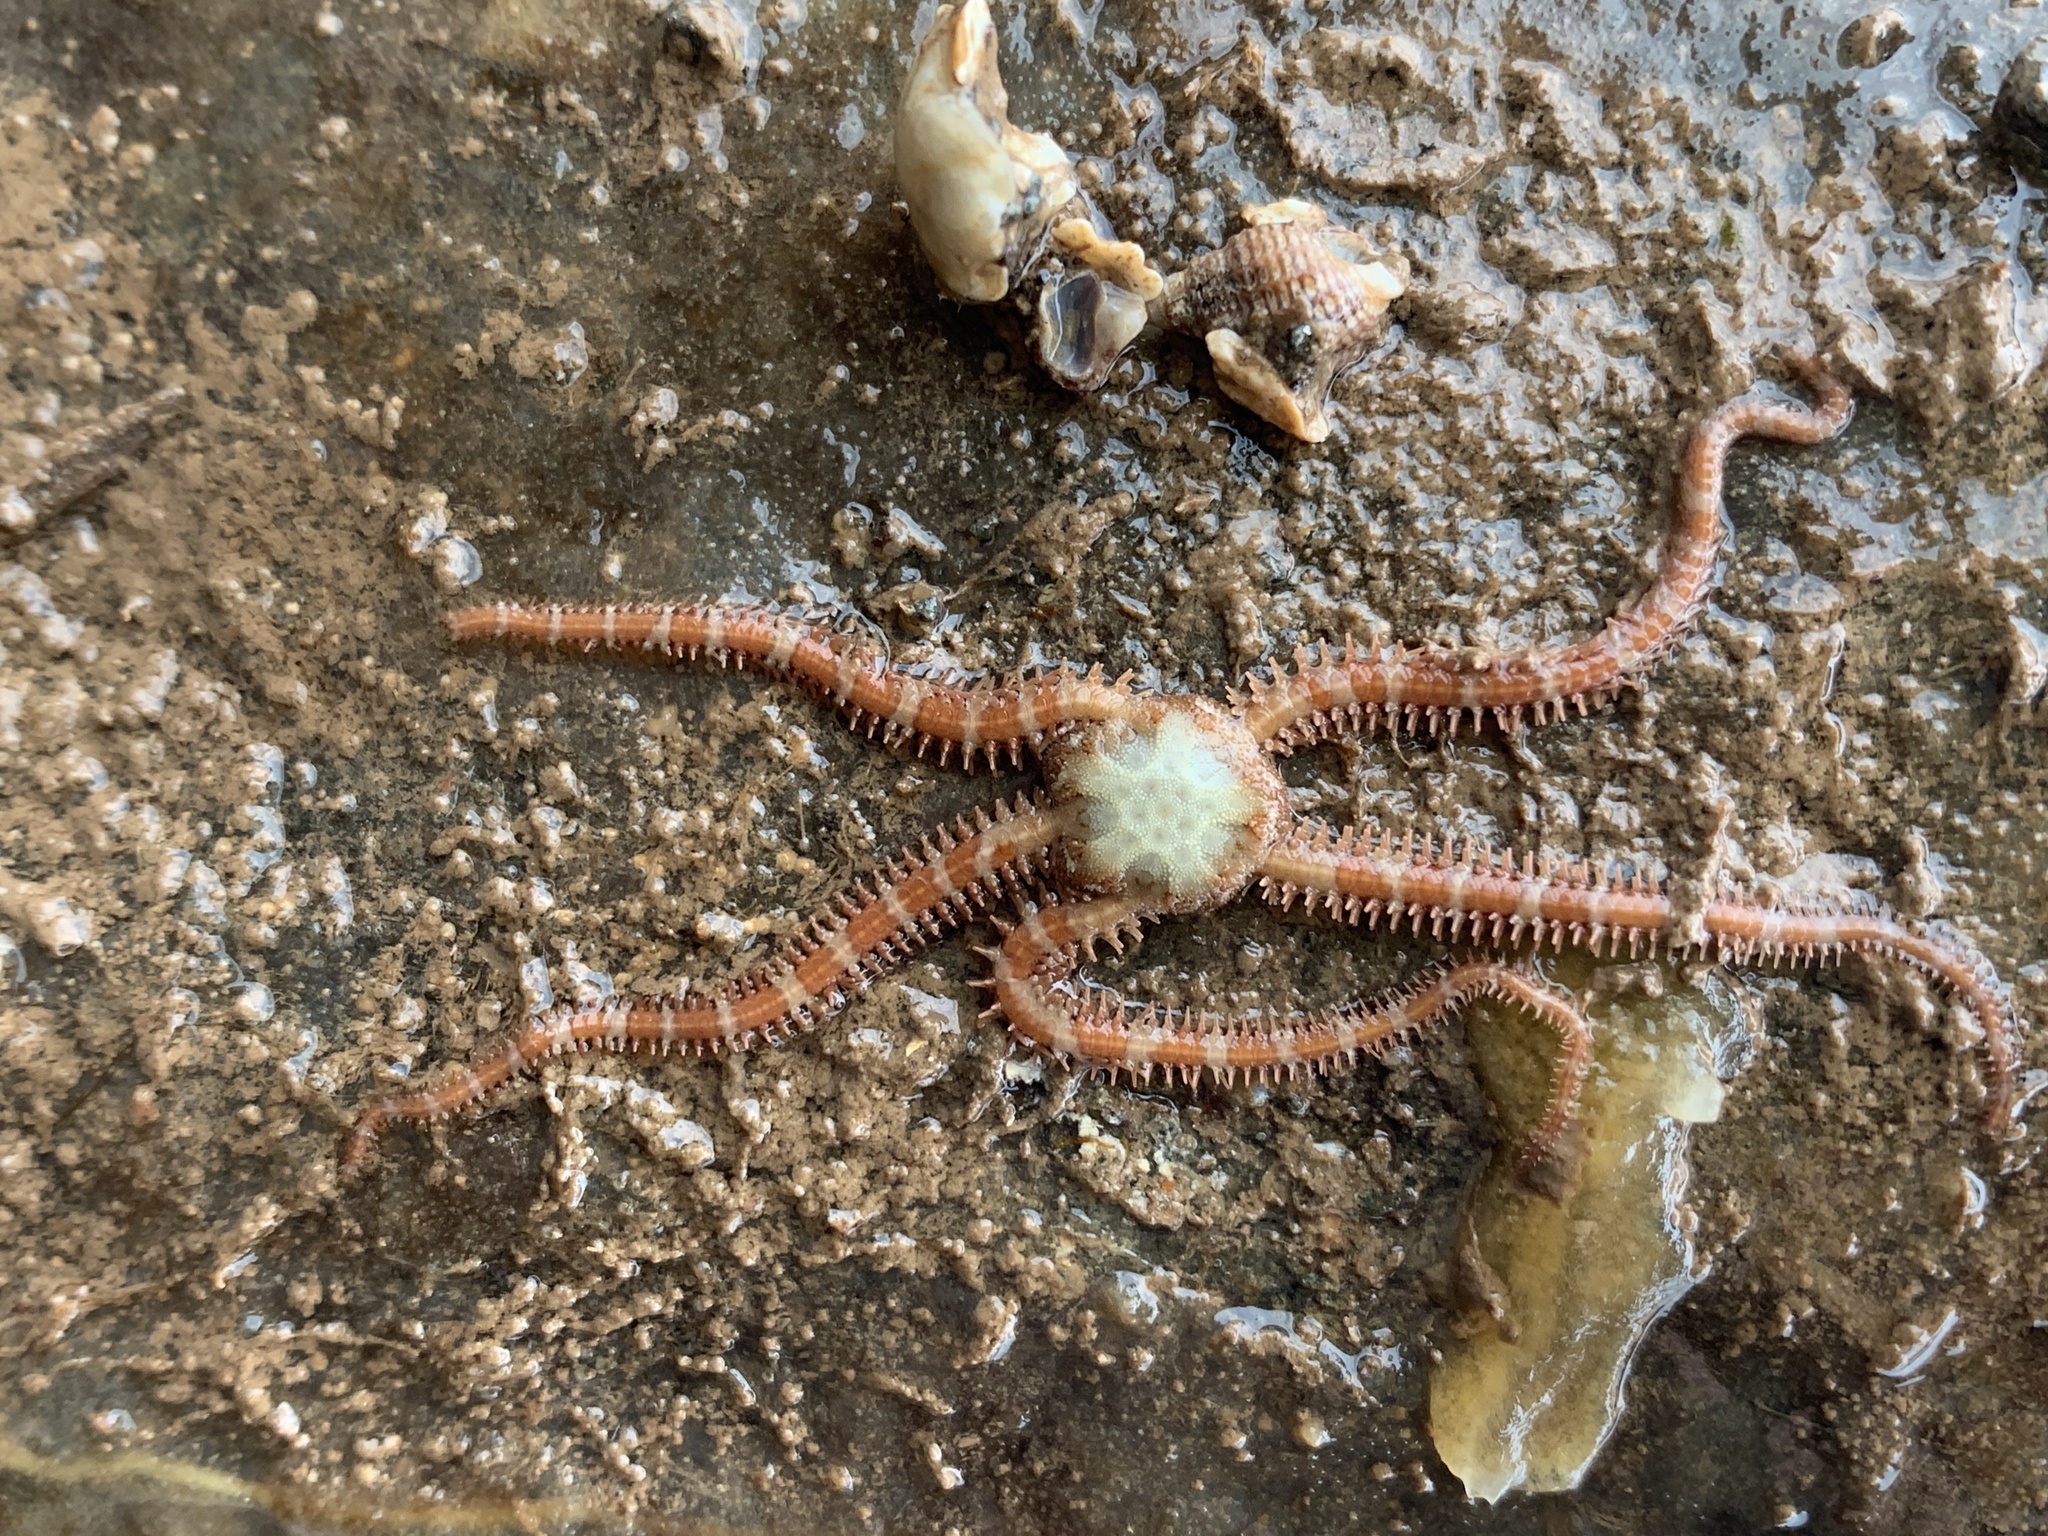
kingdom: Animalia
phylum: Echinodermata
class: Ophiuroidea
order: Amphilepidida
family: Ophiopholidae
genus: Ophiopholis
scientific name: Ophiopholis aculeata
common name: Crevice brittlestar
